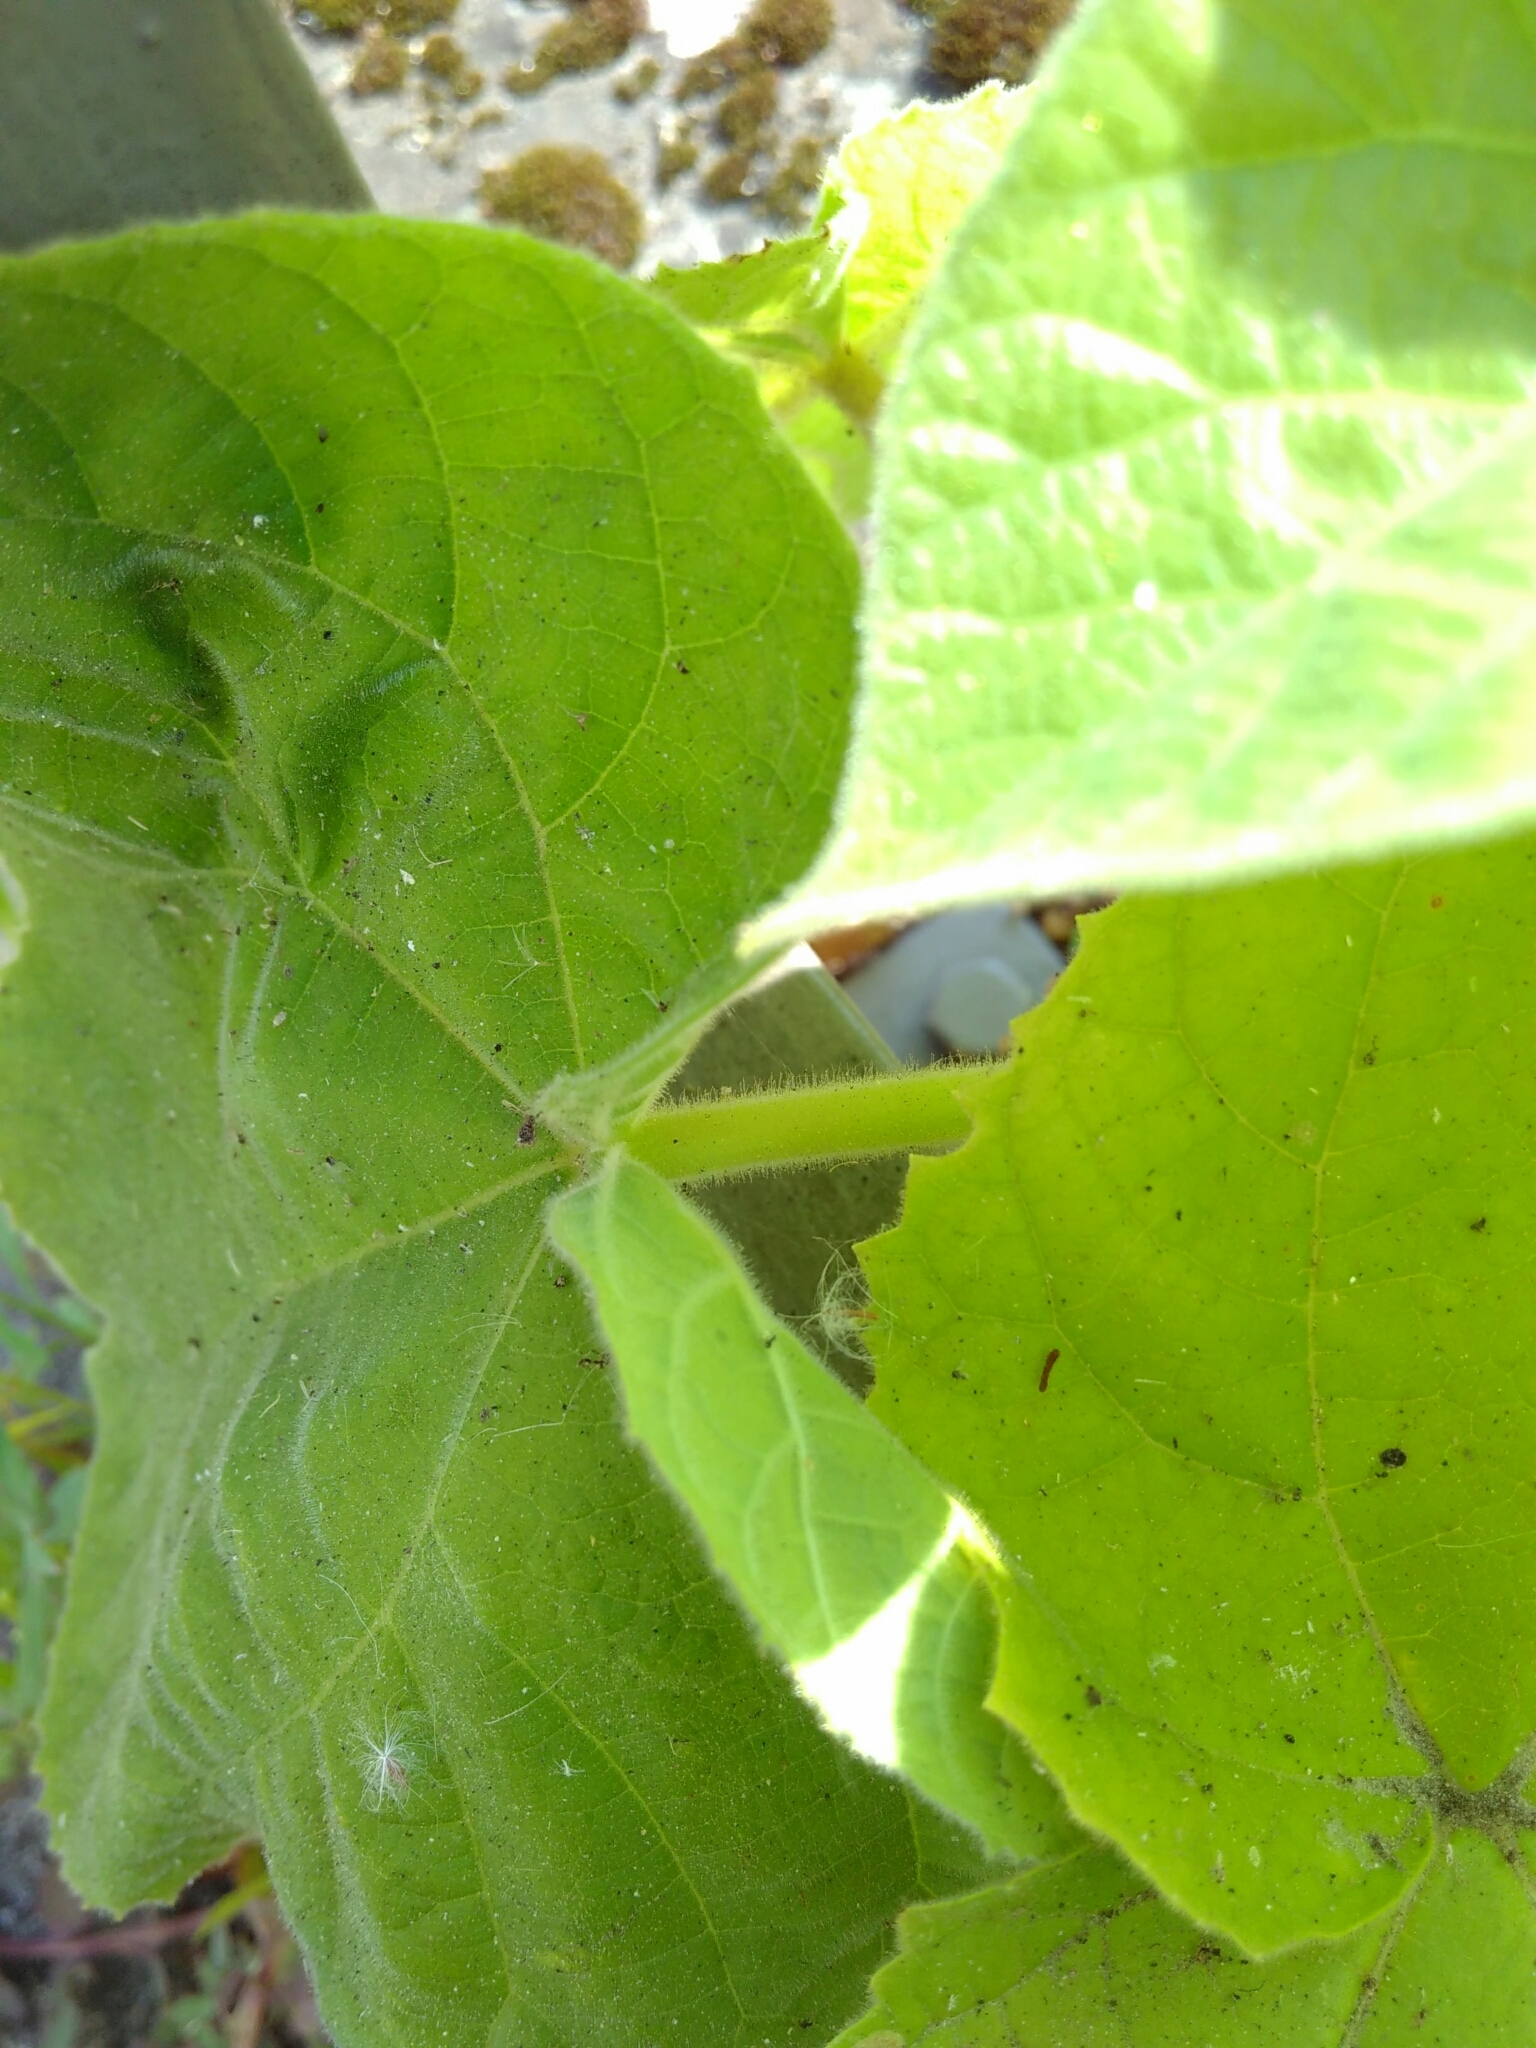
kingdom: Plantae
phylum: Tracheophyta
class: Magnoliopsida
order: Lamiales
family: Paulowniaceae
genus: Paulownia
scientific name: Paulownia tomentosa
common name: Foxglove-tree
